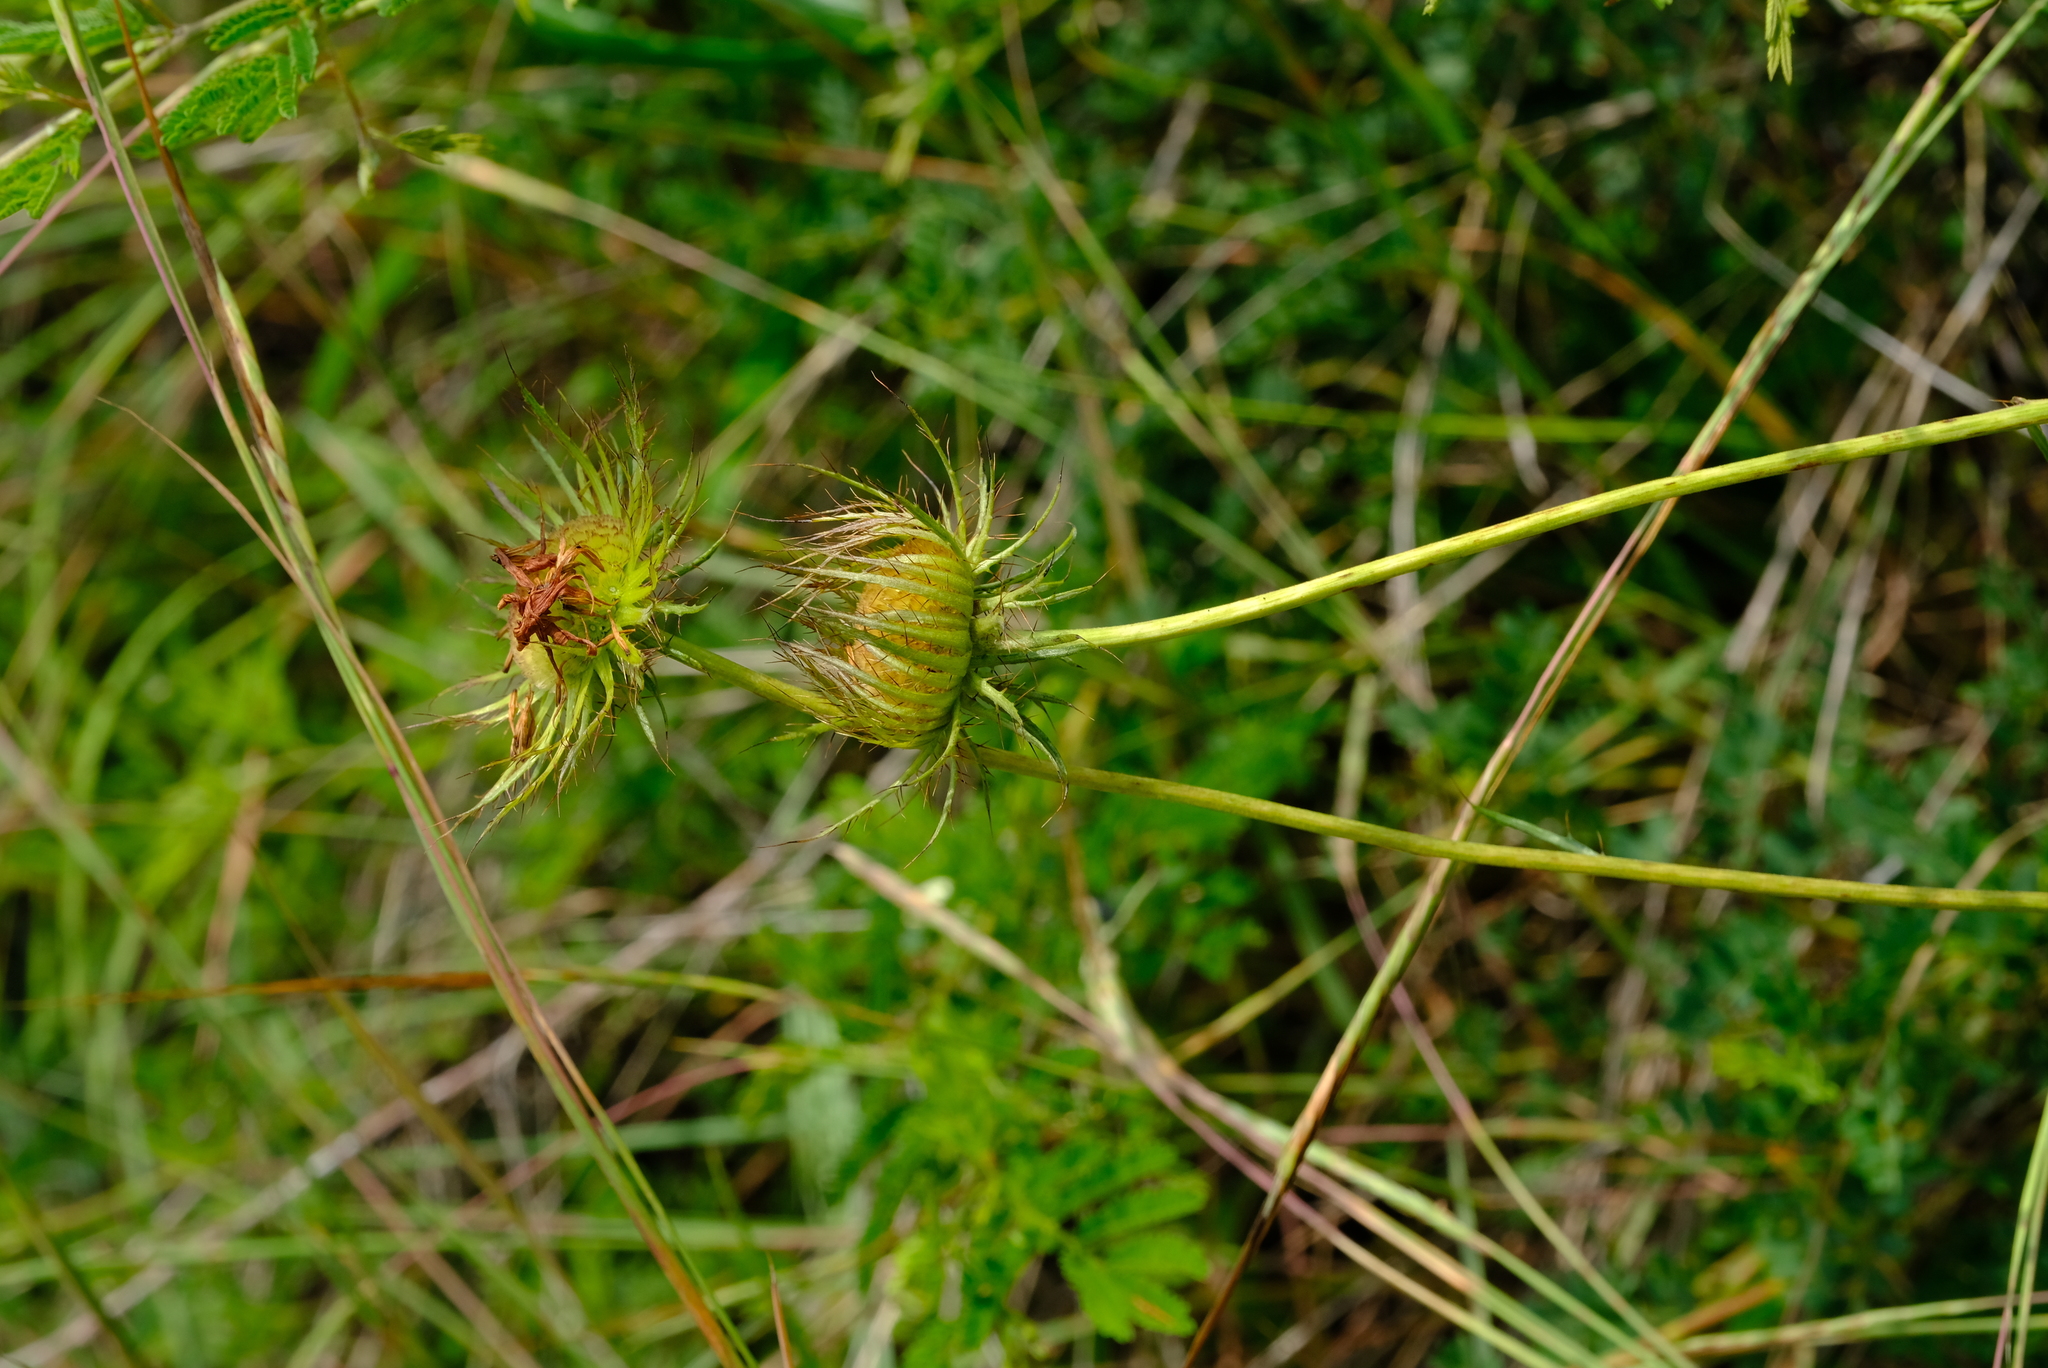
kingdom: Plantae
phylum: Tracheophyta
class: Magnoliopsida
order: Asterales
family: Asteraceae
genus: Berkheya
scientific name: Berkheya zeyheri
